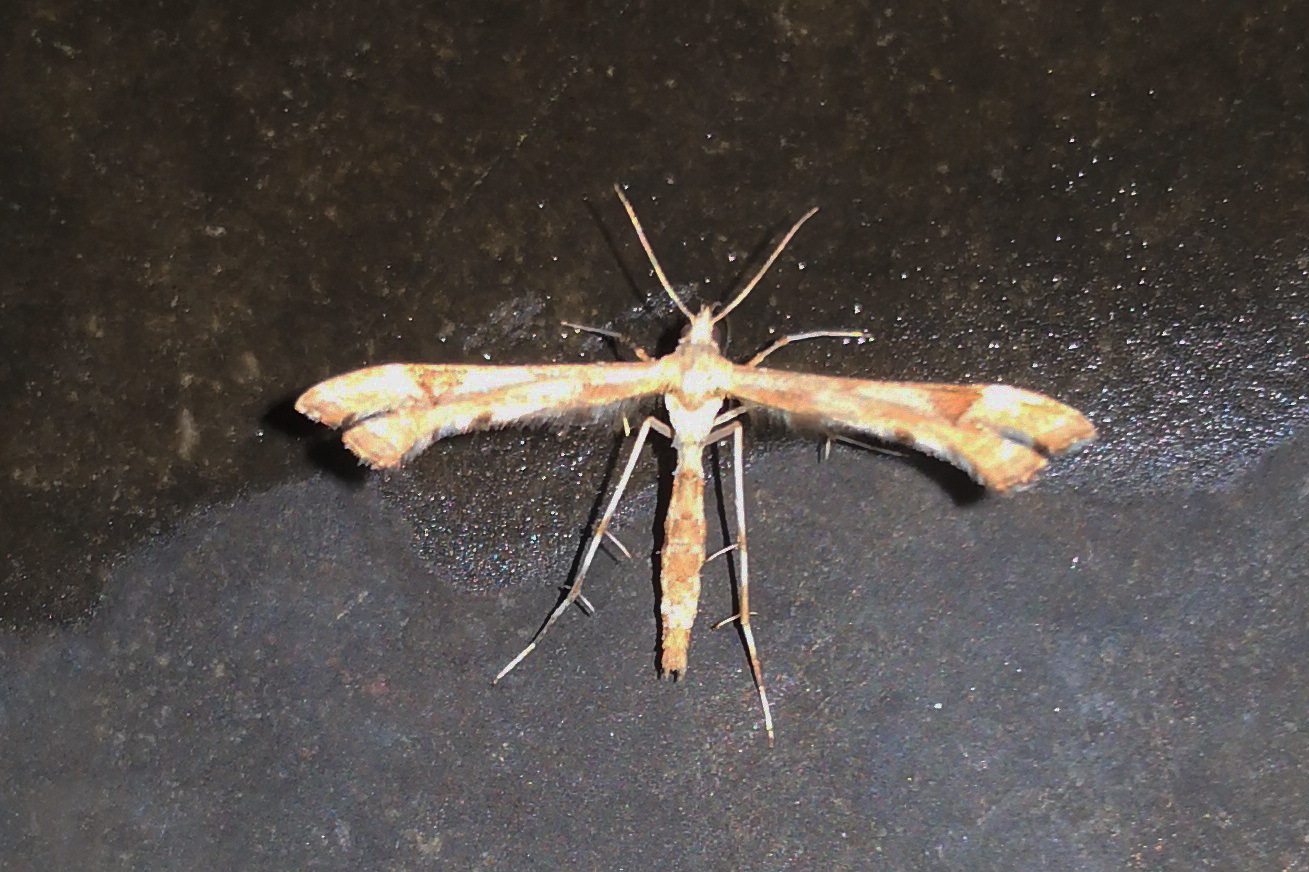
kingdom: Animalia
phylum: Arthropoda
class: Insecta
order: Lepidoptera
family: Pterophoridae
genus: Platyptilia
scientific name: Platyptilia gonodactyla
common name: Triangle plume
